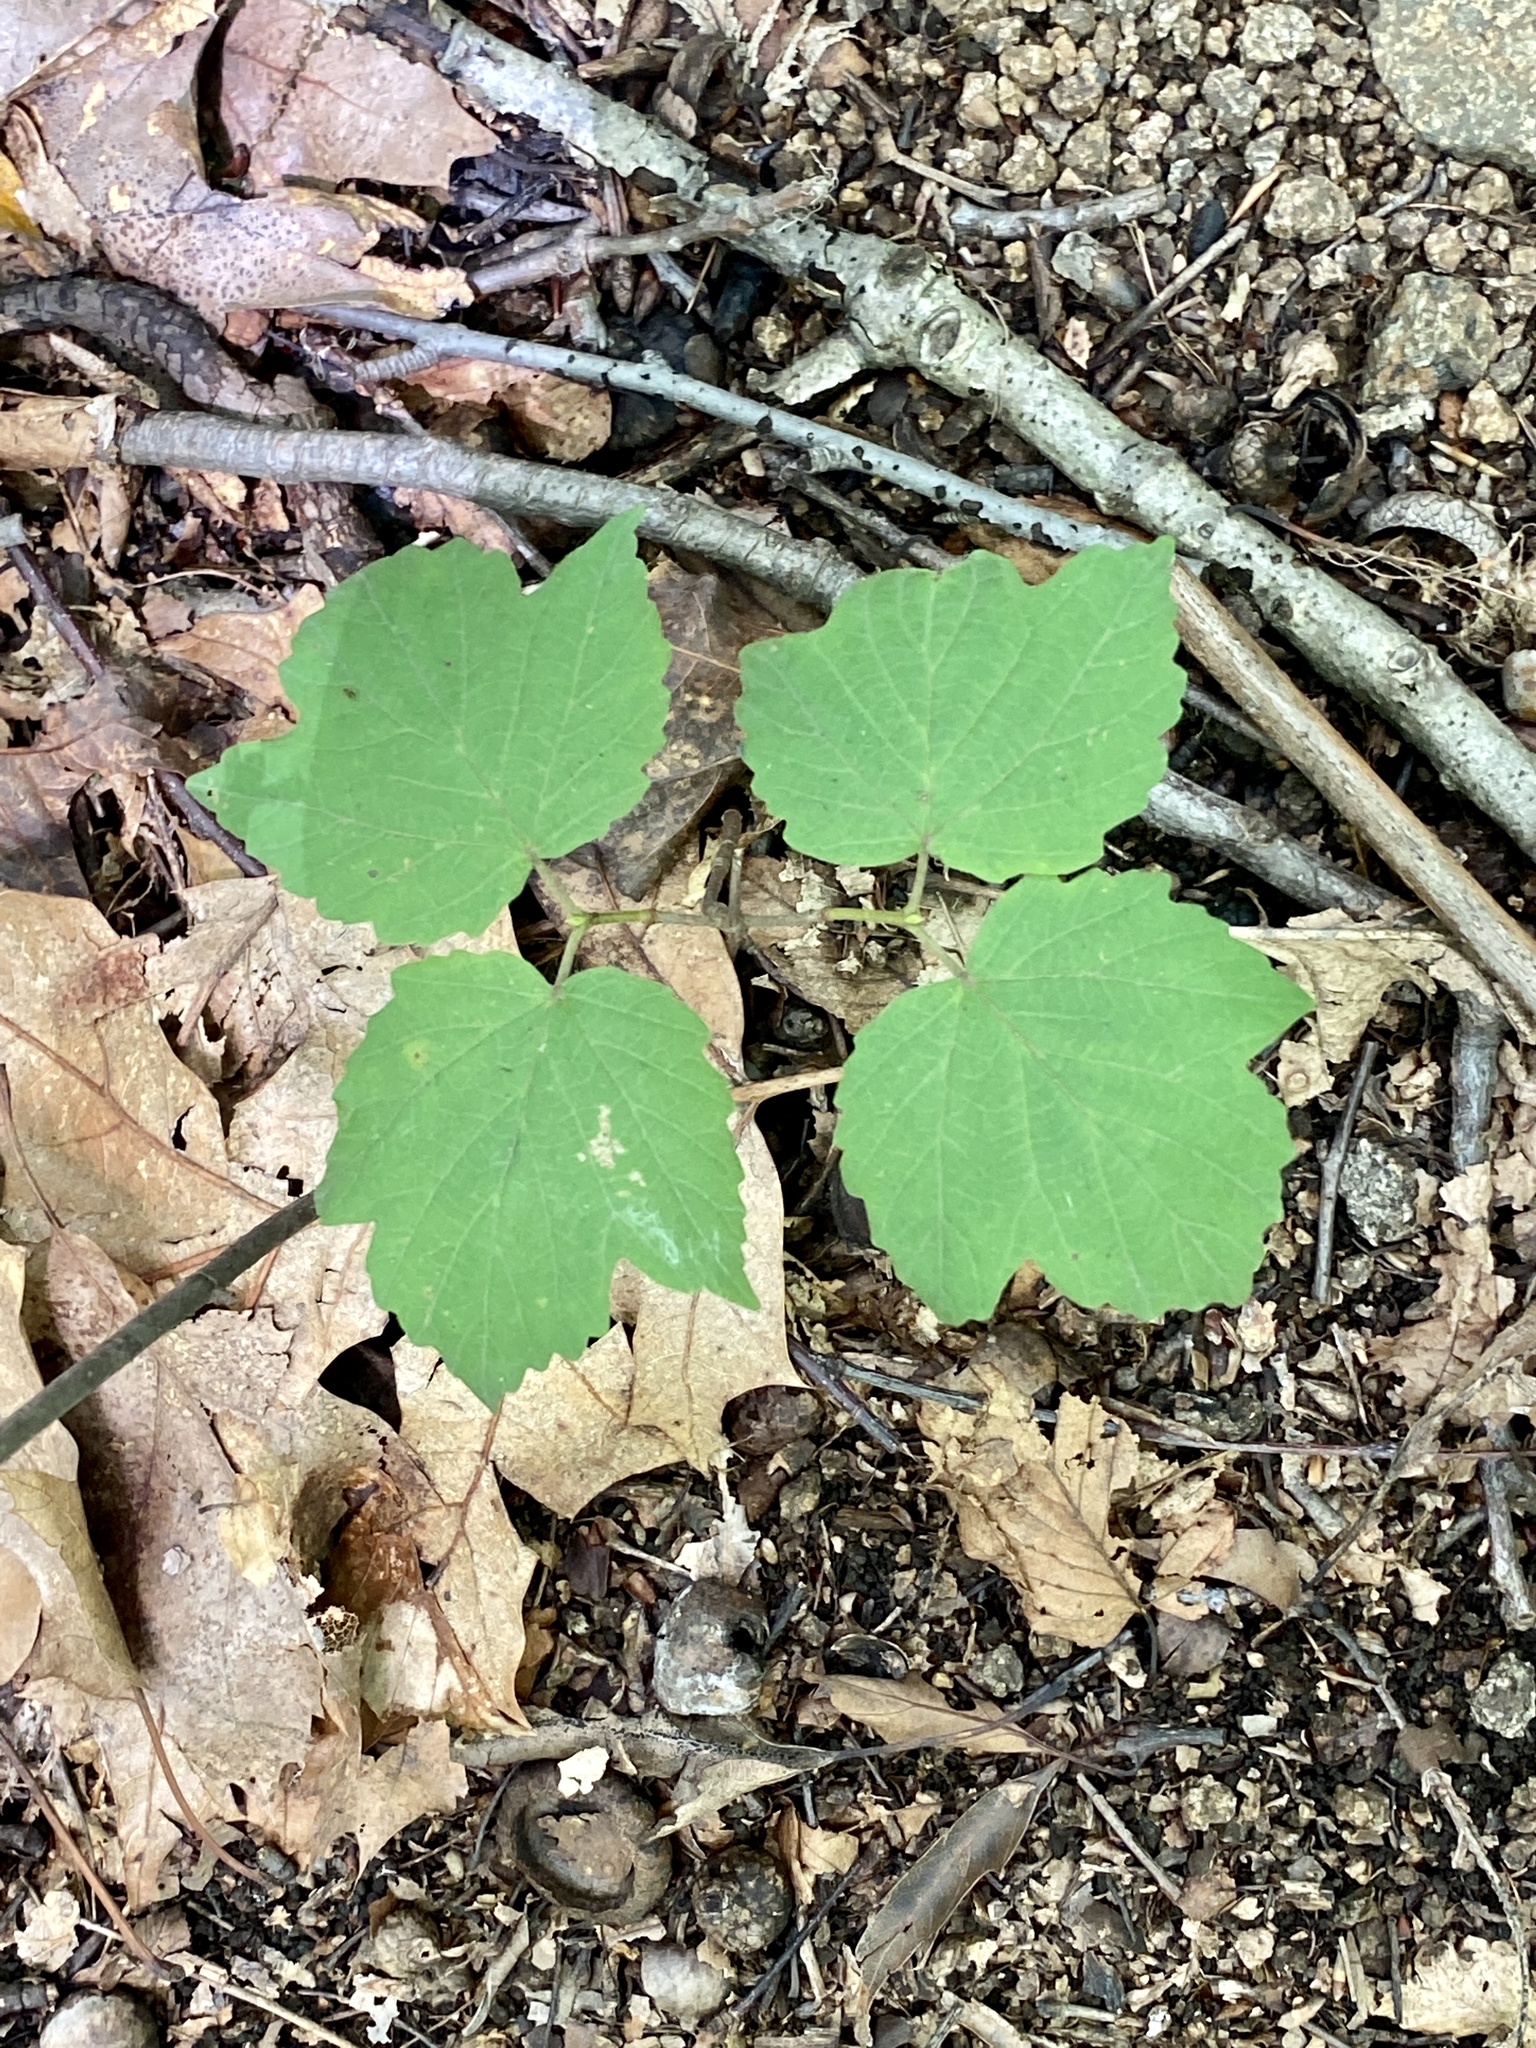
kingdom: Plantae
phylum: Tracheophyta
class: Magnoliopsida
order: Dipsacales
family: Viburnaceae
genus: Viburnum
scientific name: Viburnum acerifolium
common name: Dockmackie
